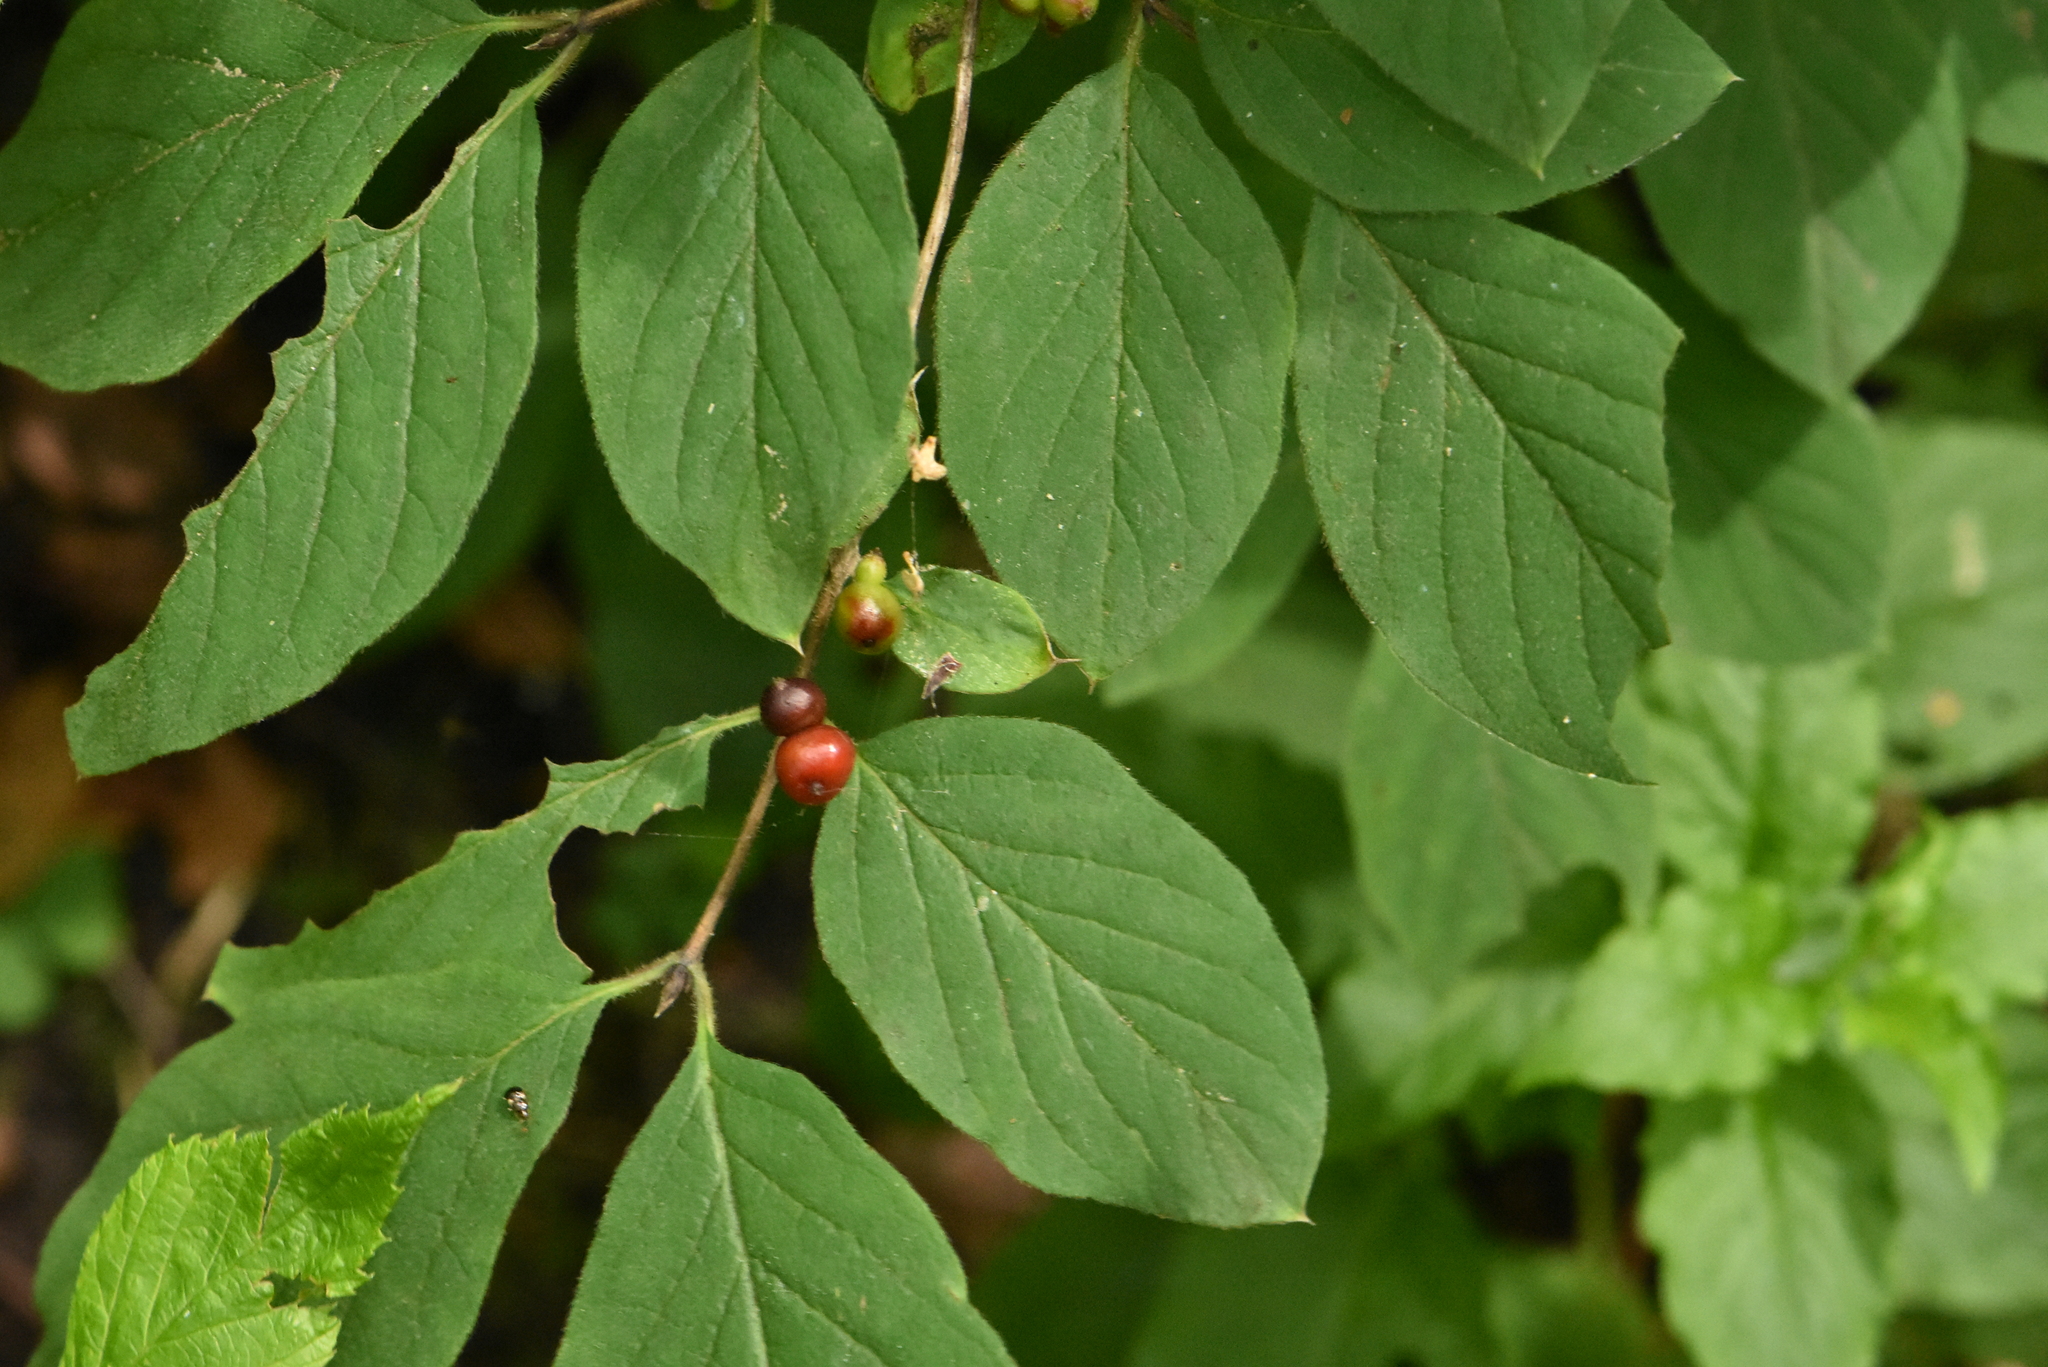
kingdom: Plantae
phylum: Tracheophyta
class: Magnoliopsida
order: Dipsacales
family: Caprifoliaceae
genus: Lonicera
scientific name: Lonicera xylosteum
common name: Fly honeysuckle
